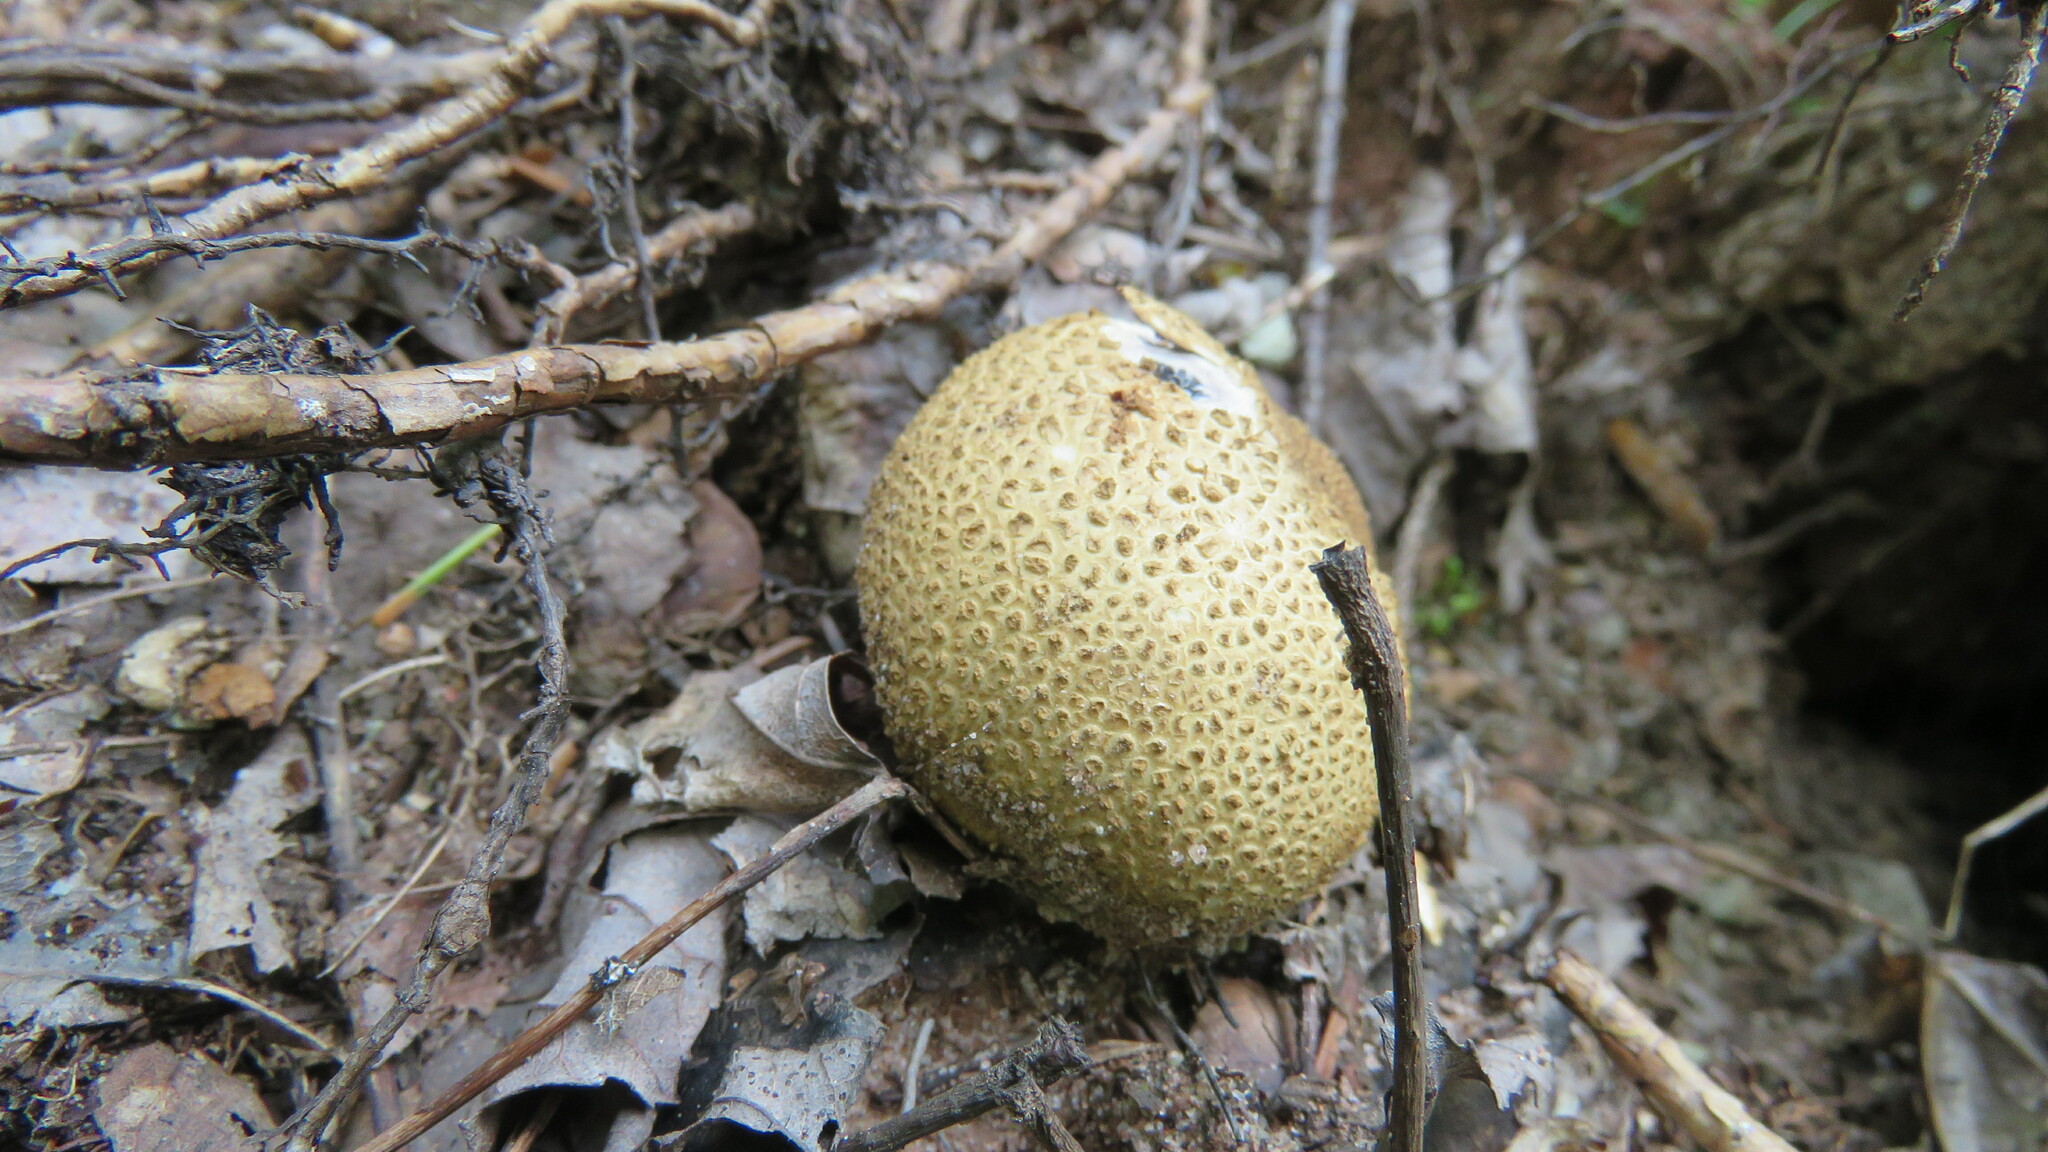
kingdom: Fungi
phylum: Basidiomycota
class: Agaricomycetes
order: Boletales
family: Sclerodermataceae
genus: Scleroderma
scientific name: Scleroderma citrinum
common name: Common earthball
